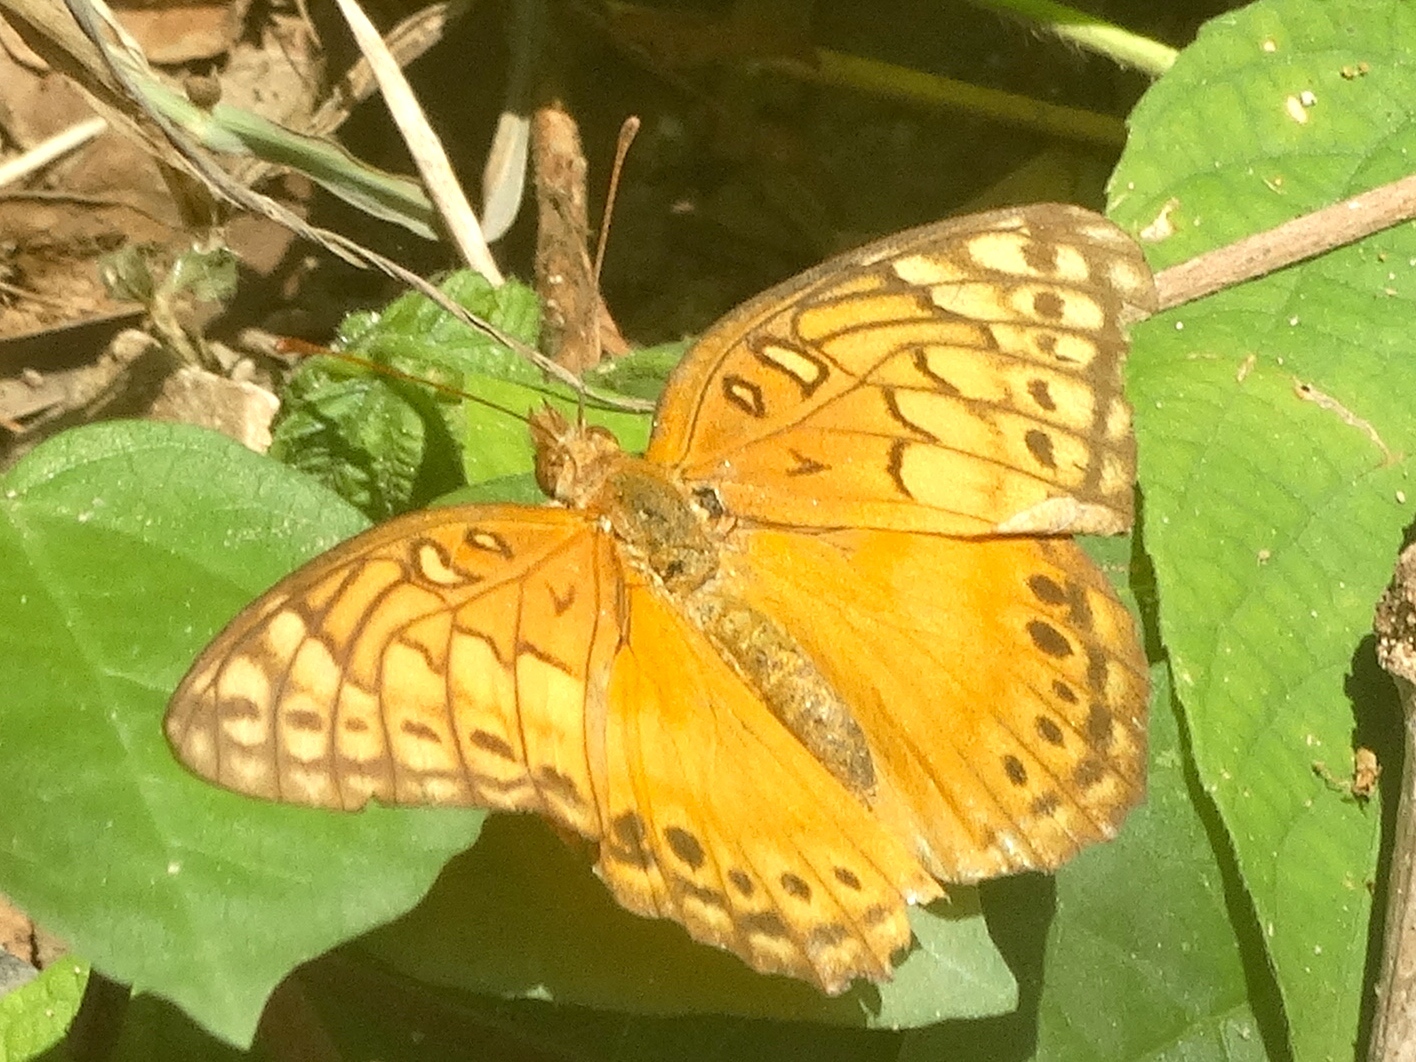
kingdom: Animalia
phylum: Arthropoda
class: Insecta
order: Lepidoptera
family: Nymphalidae
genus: Euptoieta
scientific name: Euptoieta hegesia
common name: Mexican fritillary
